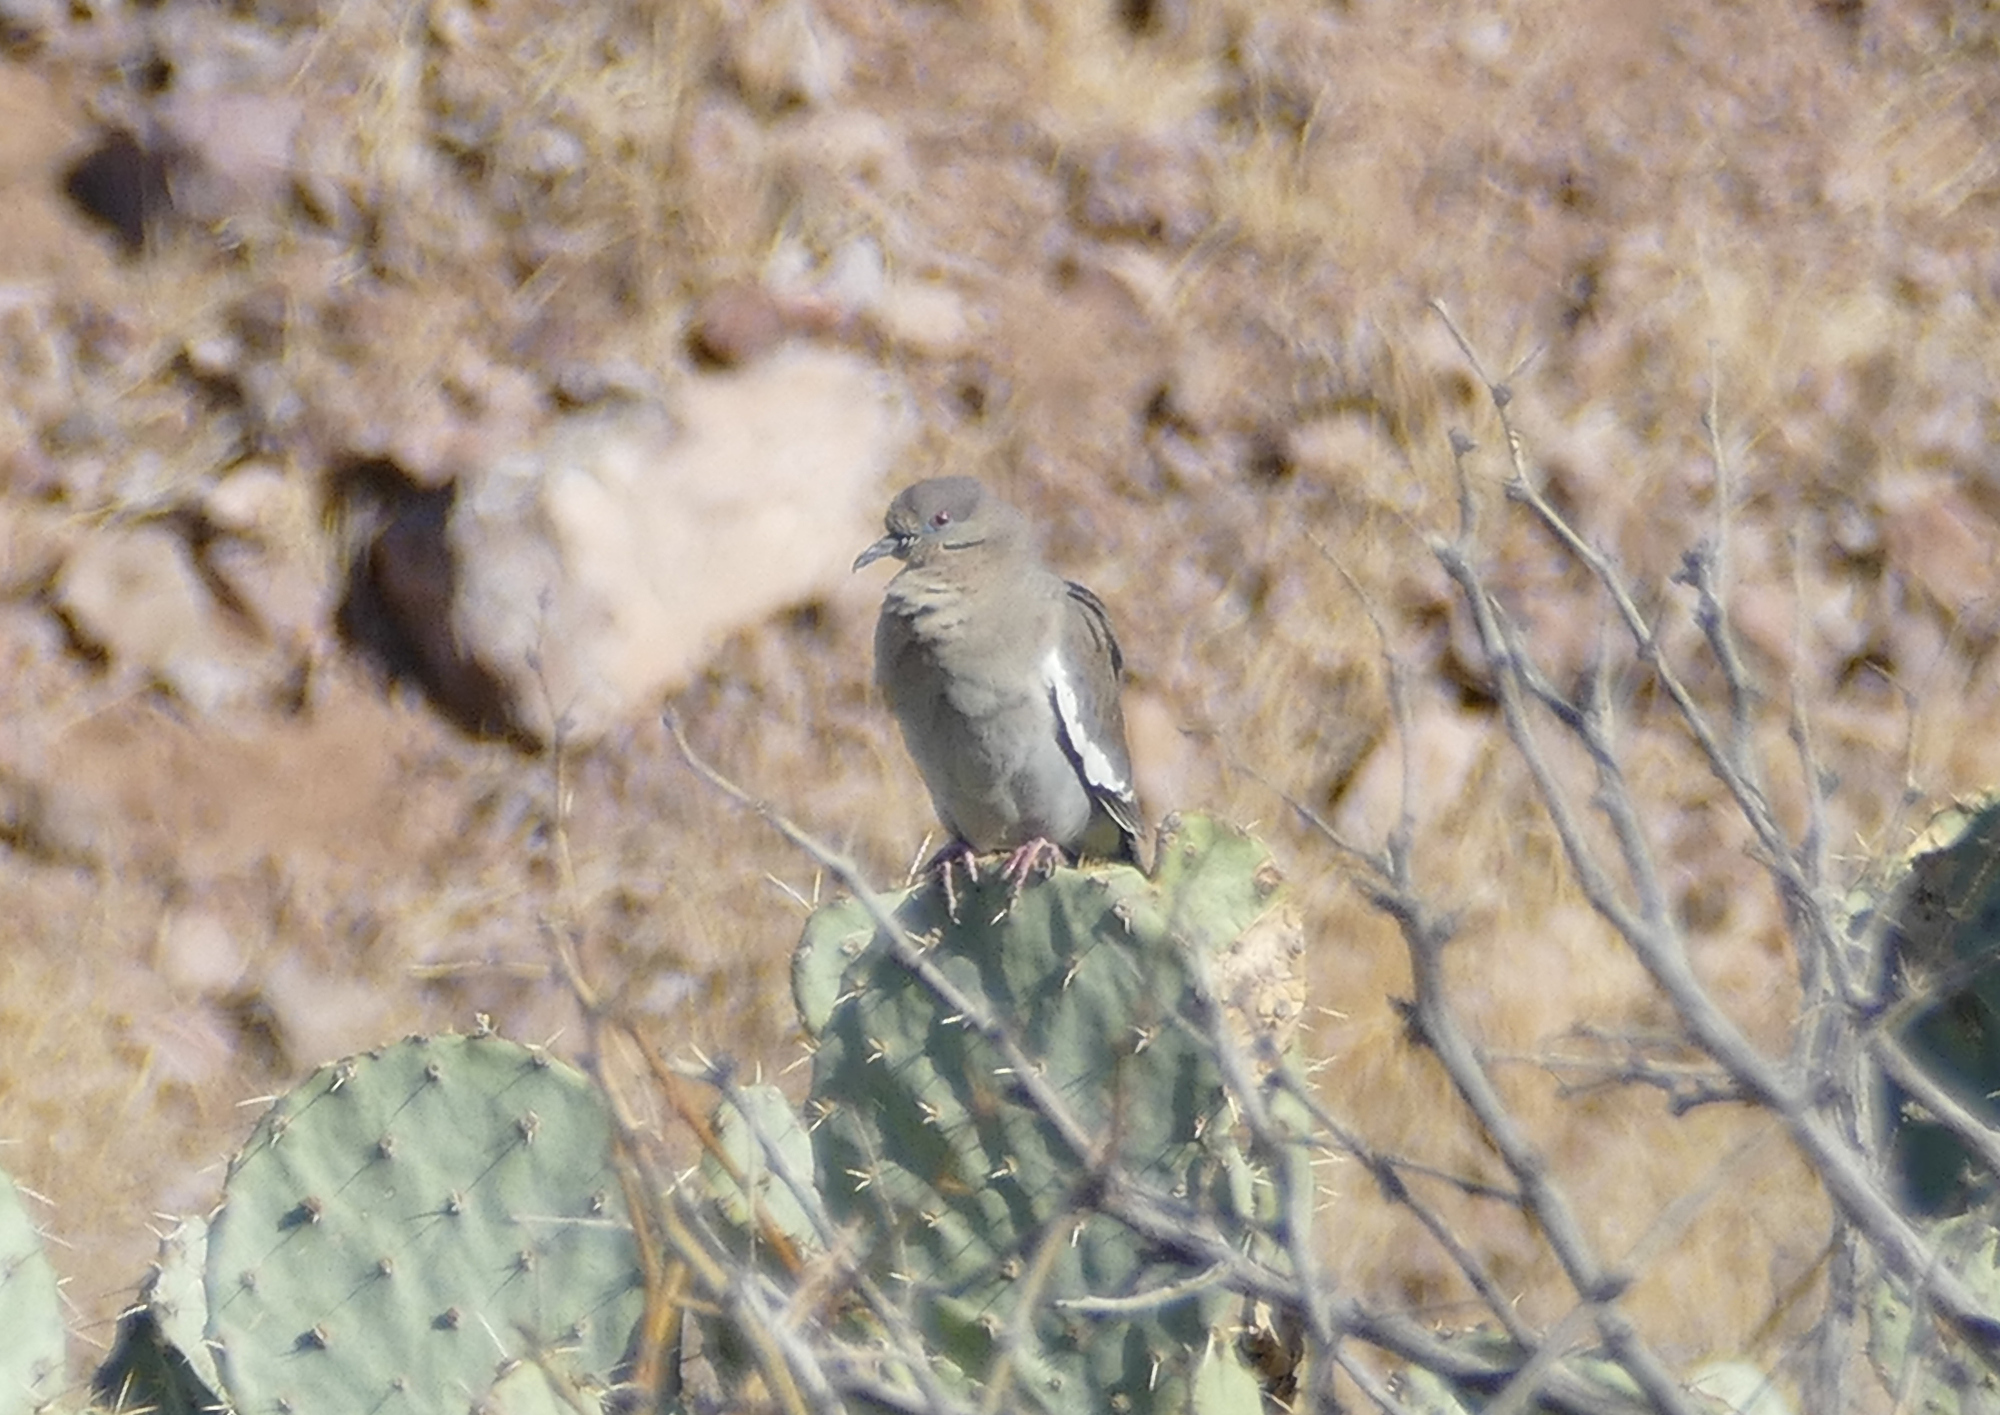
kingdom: Animalia
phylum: Chordata
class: Aves
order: Columbiformes
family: Columbidae
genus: Zenaida
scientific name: Zenaida asiatica
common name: White-winged dove
